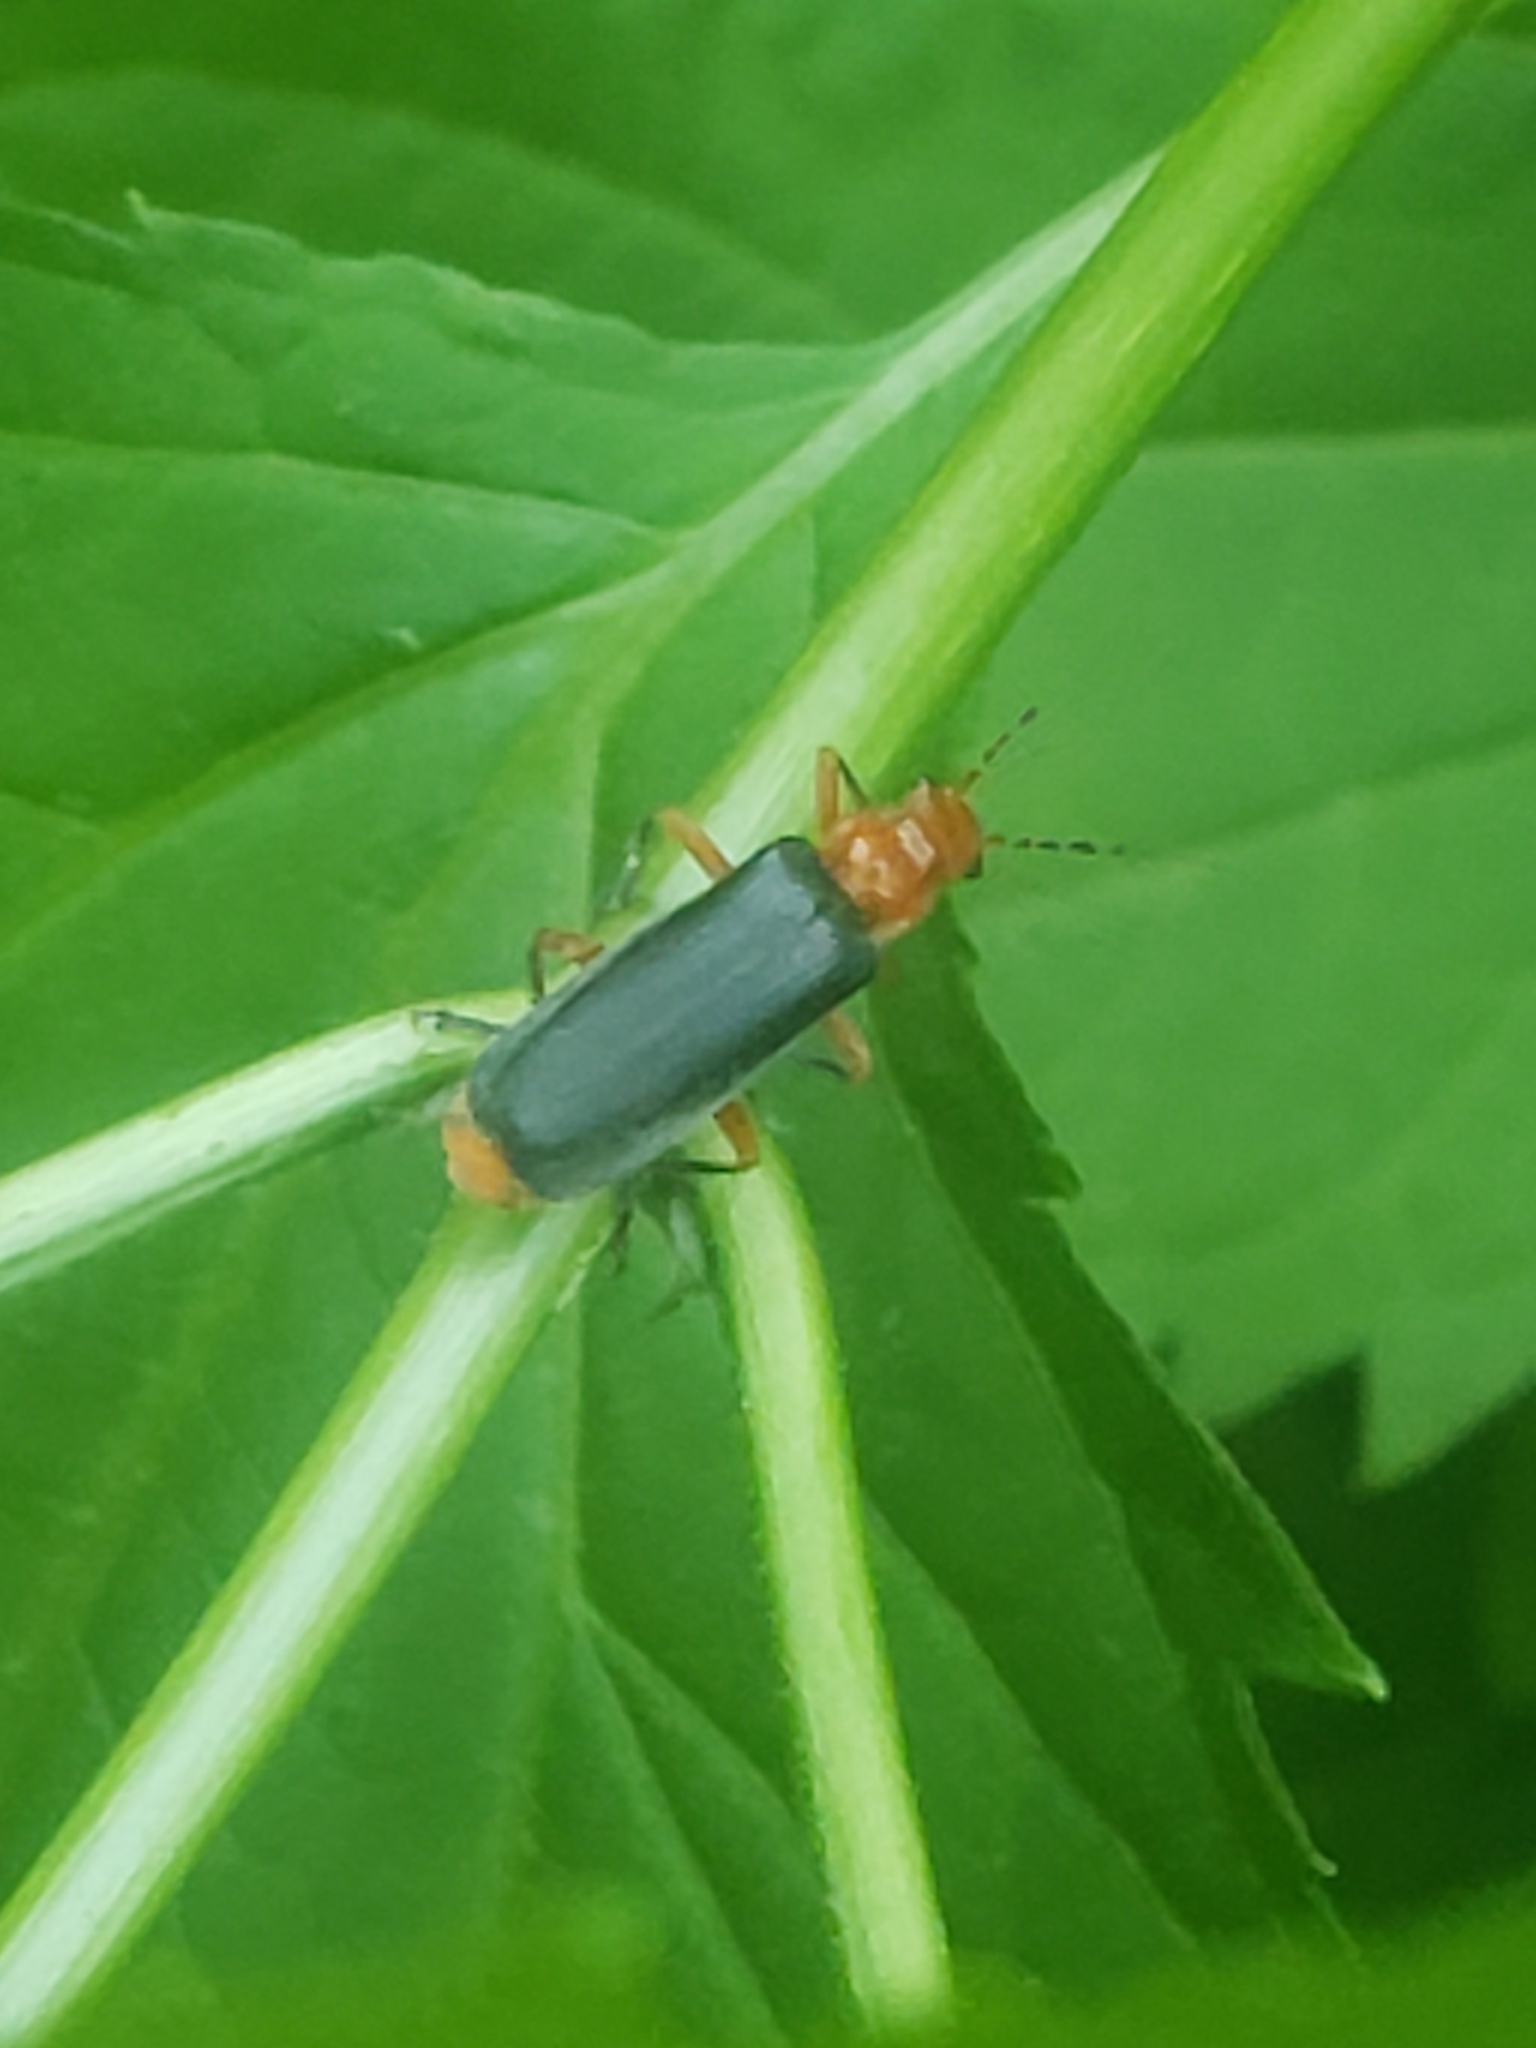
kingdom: Animalia
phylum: Arthropoda
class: Insecta
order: Coleoptera
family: Cantharidae
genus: Podabrus
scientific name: Podabrus tomentosus
